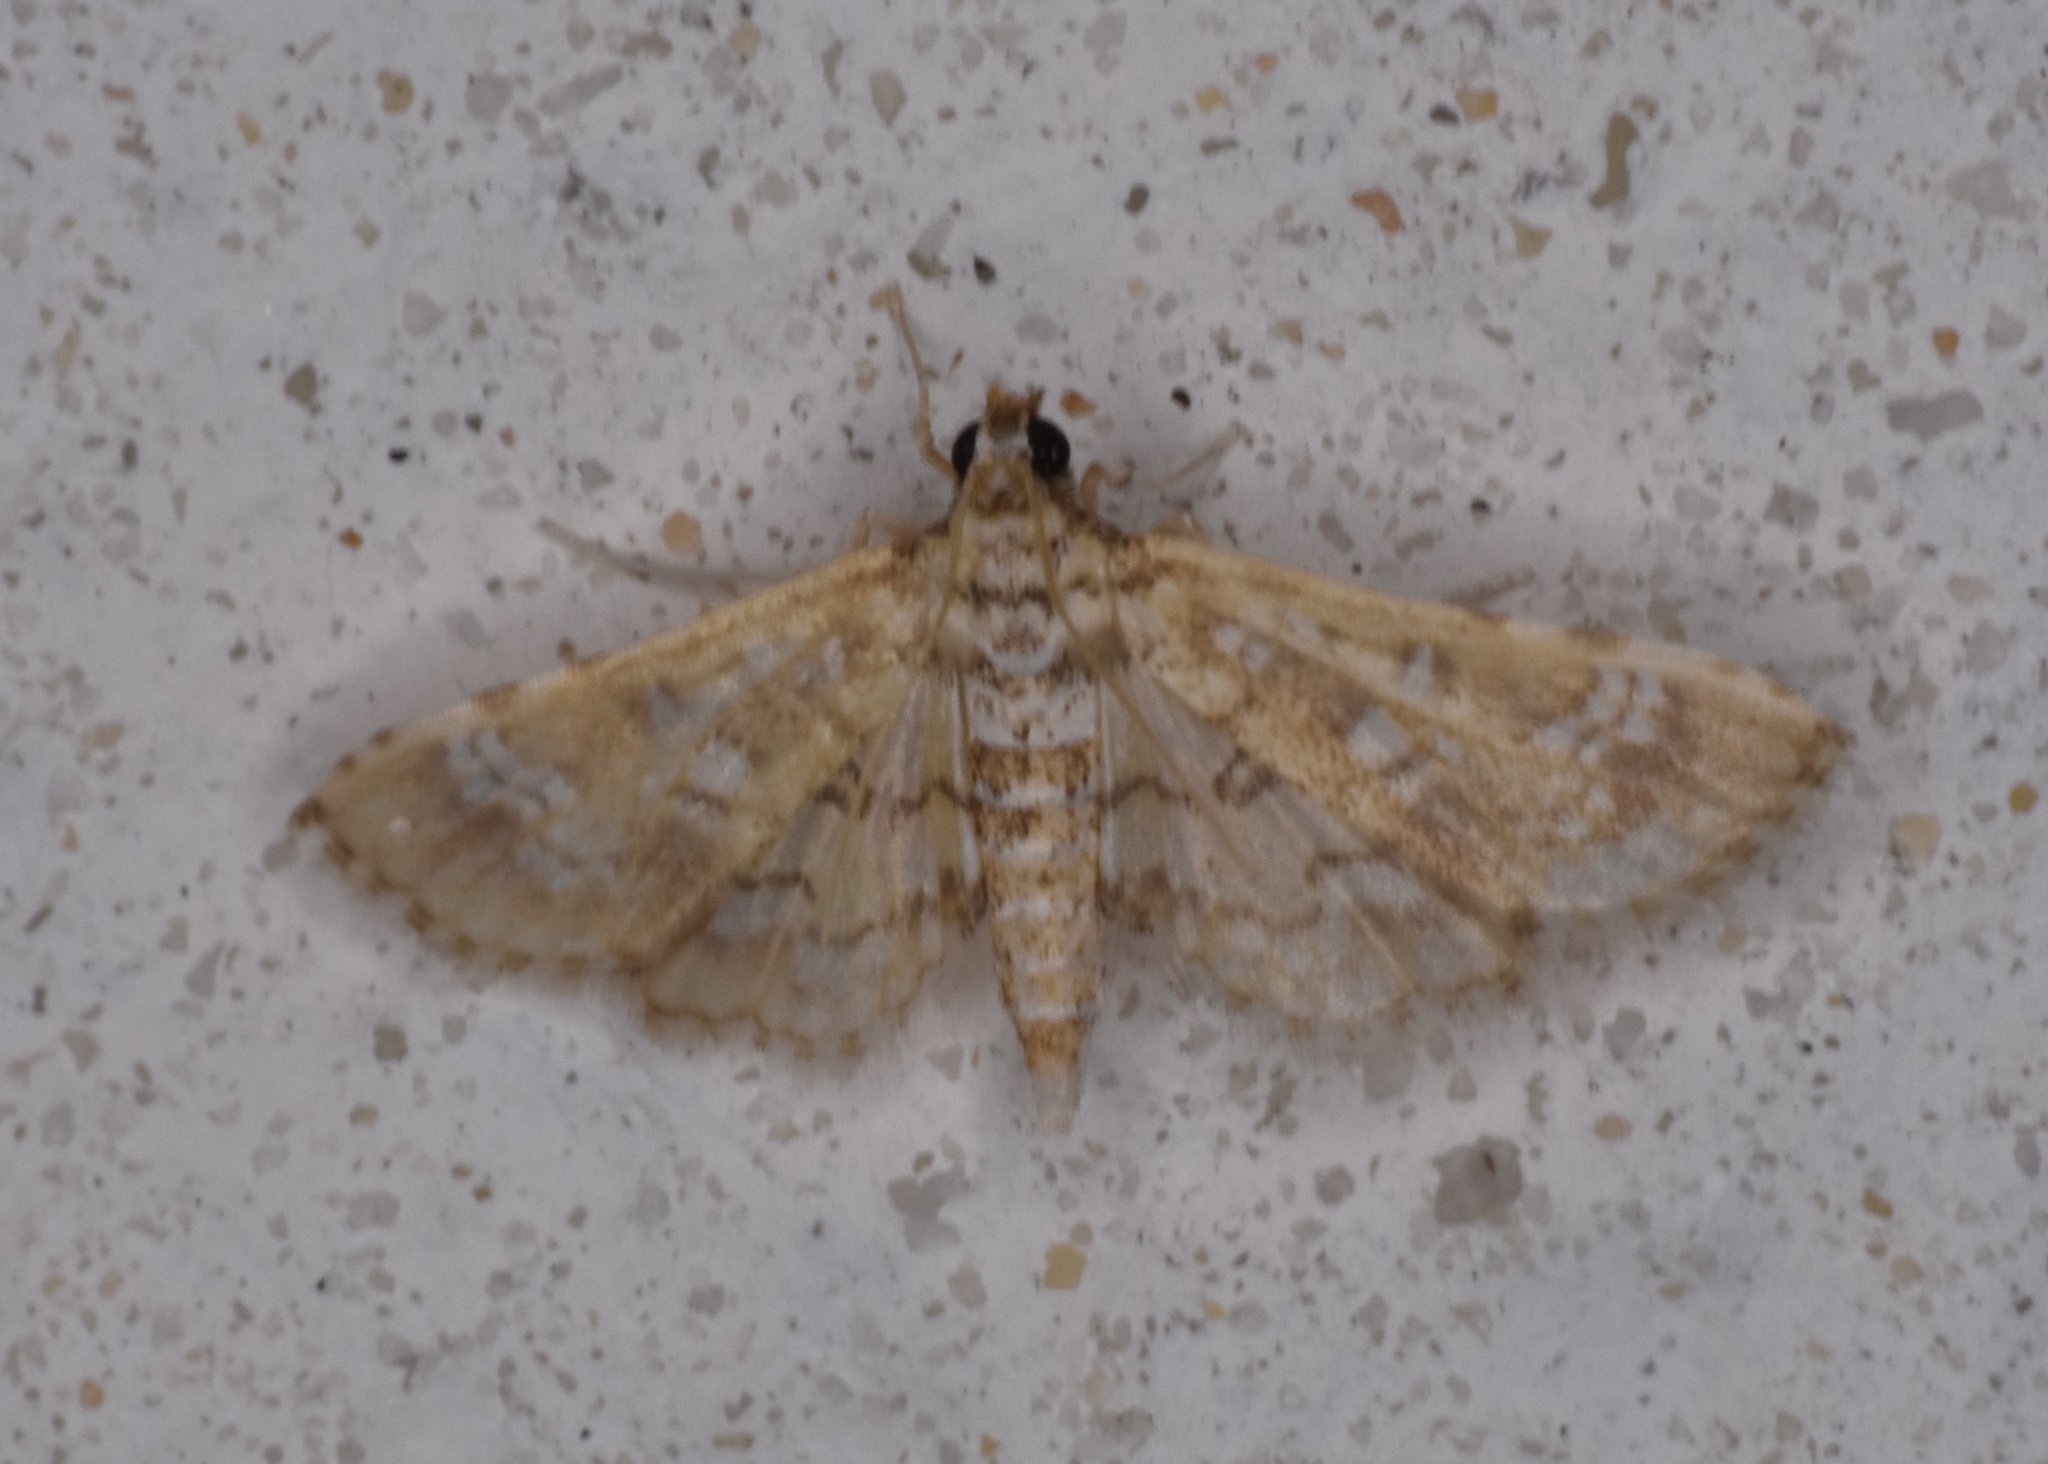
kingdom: Animalia
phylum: Arthropoda
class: Insecta
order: Lepidoptera
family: Crambidae
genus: Samea
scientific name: Samea multiplicalis
